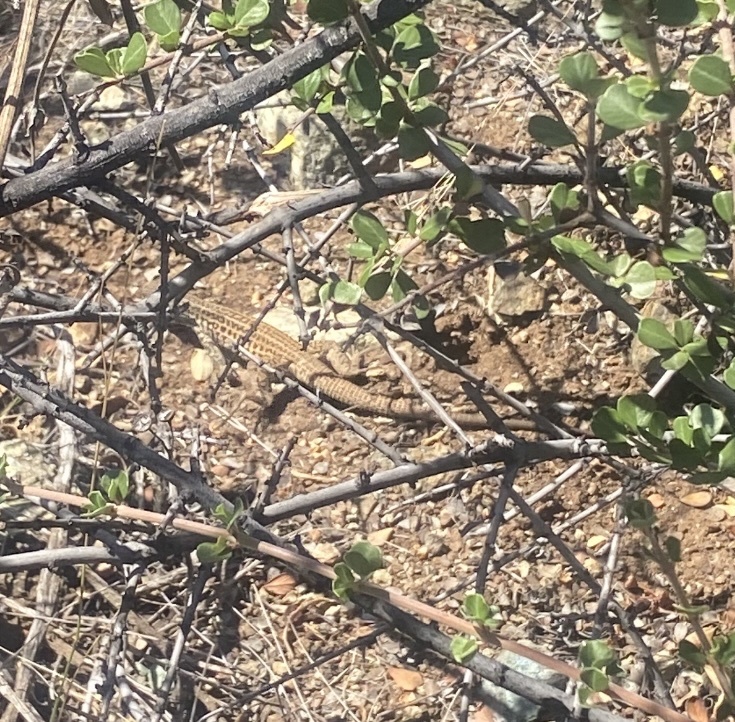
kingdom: Animalia
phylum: Chordata
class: Squamata
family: Teiidae
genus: Aspidoscelis
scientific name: Aspidoscelis tigris
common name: Tiger whiptail
